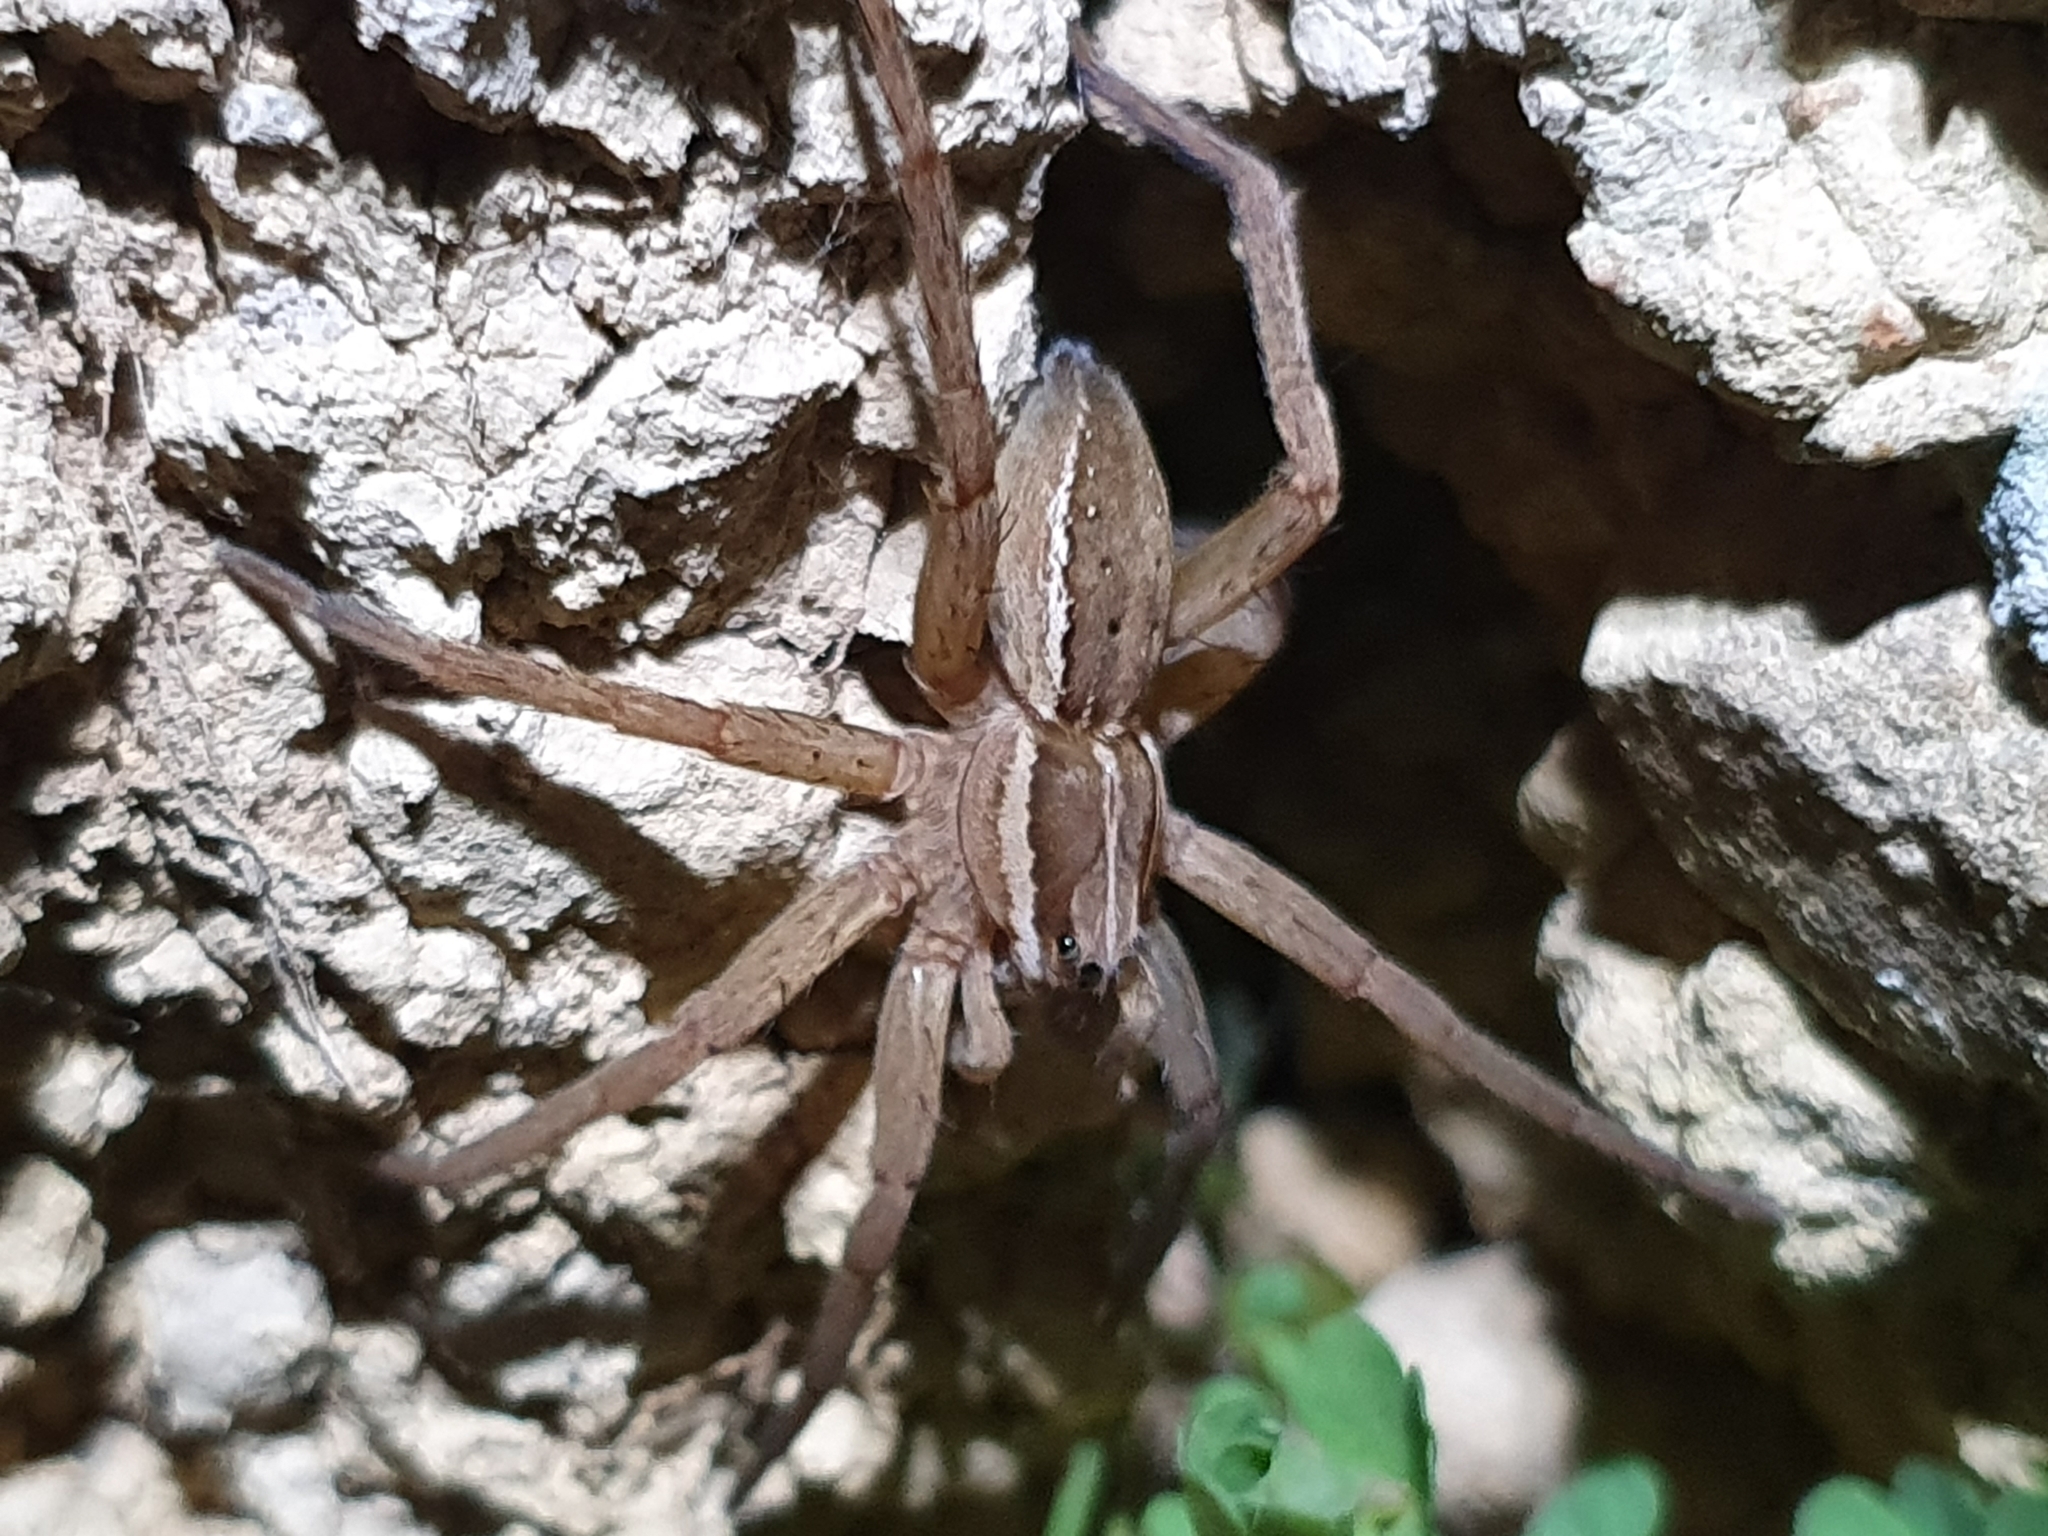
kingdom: Animalia
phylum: Arthropoda
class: Arachnida
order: Araneae
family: Pisauridae
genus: Dolomedes
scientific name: Dolomedes minor
